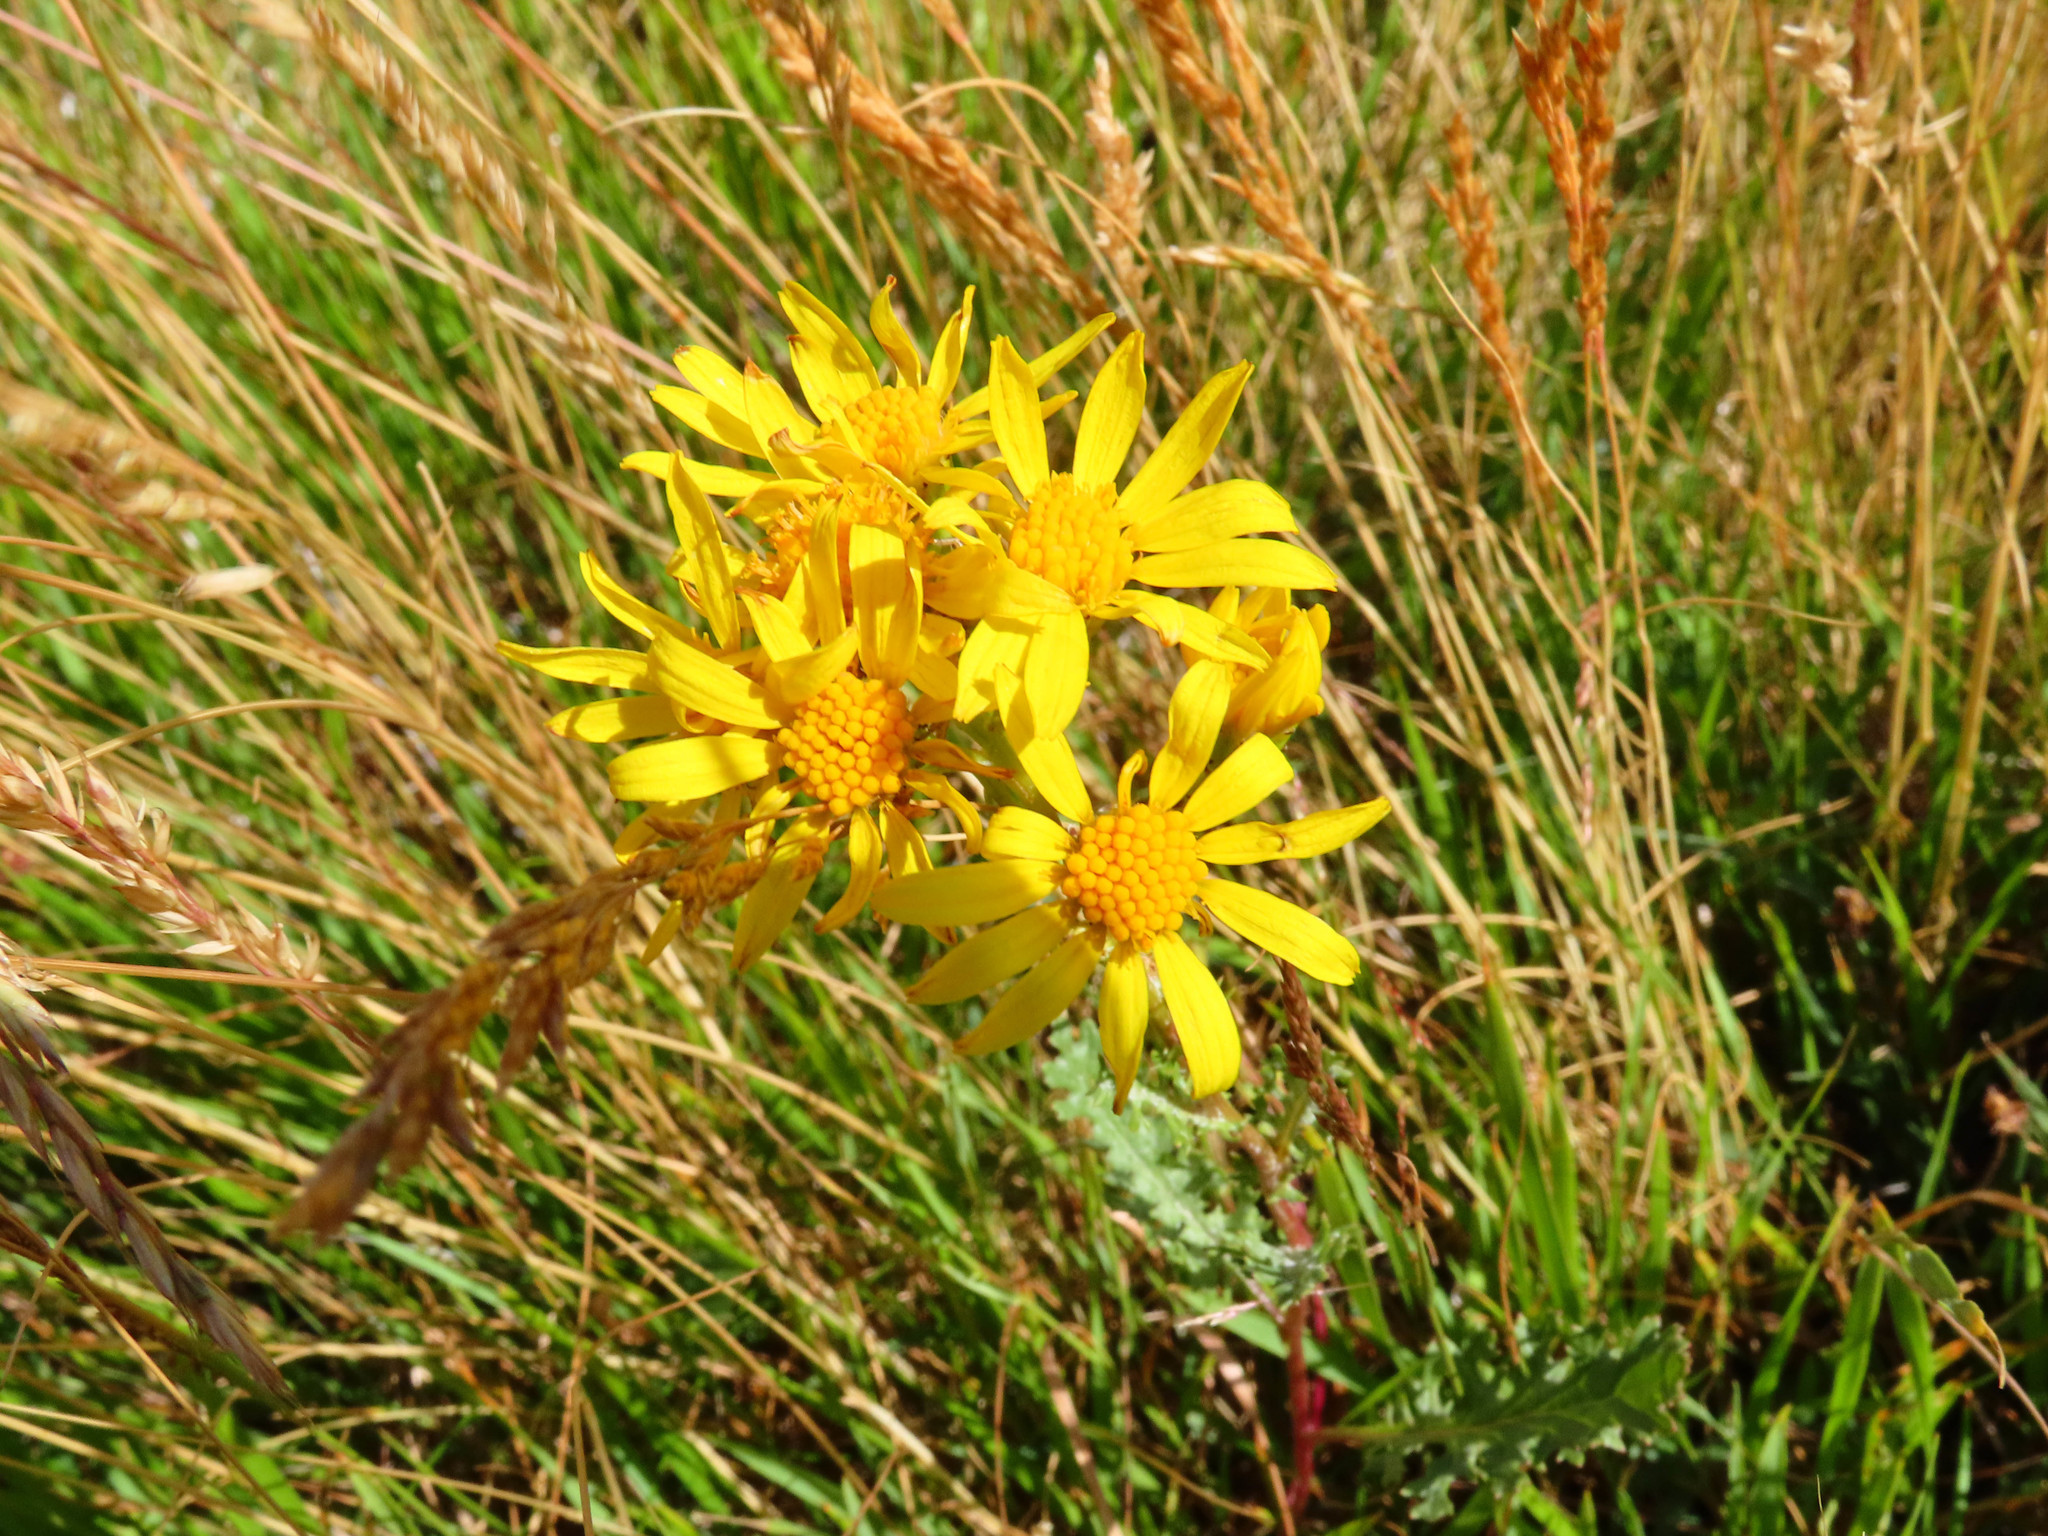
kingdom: Plantae
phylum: Tracheophyta
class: Magnoliopsida
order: Asterales
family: Asteraceae
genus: Jacobaea
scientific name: Jacobaea vulgaris
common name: Stinking willie
